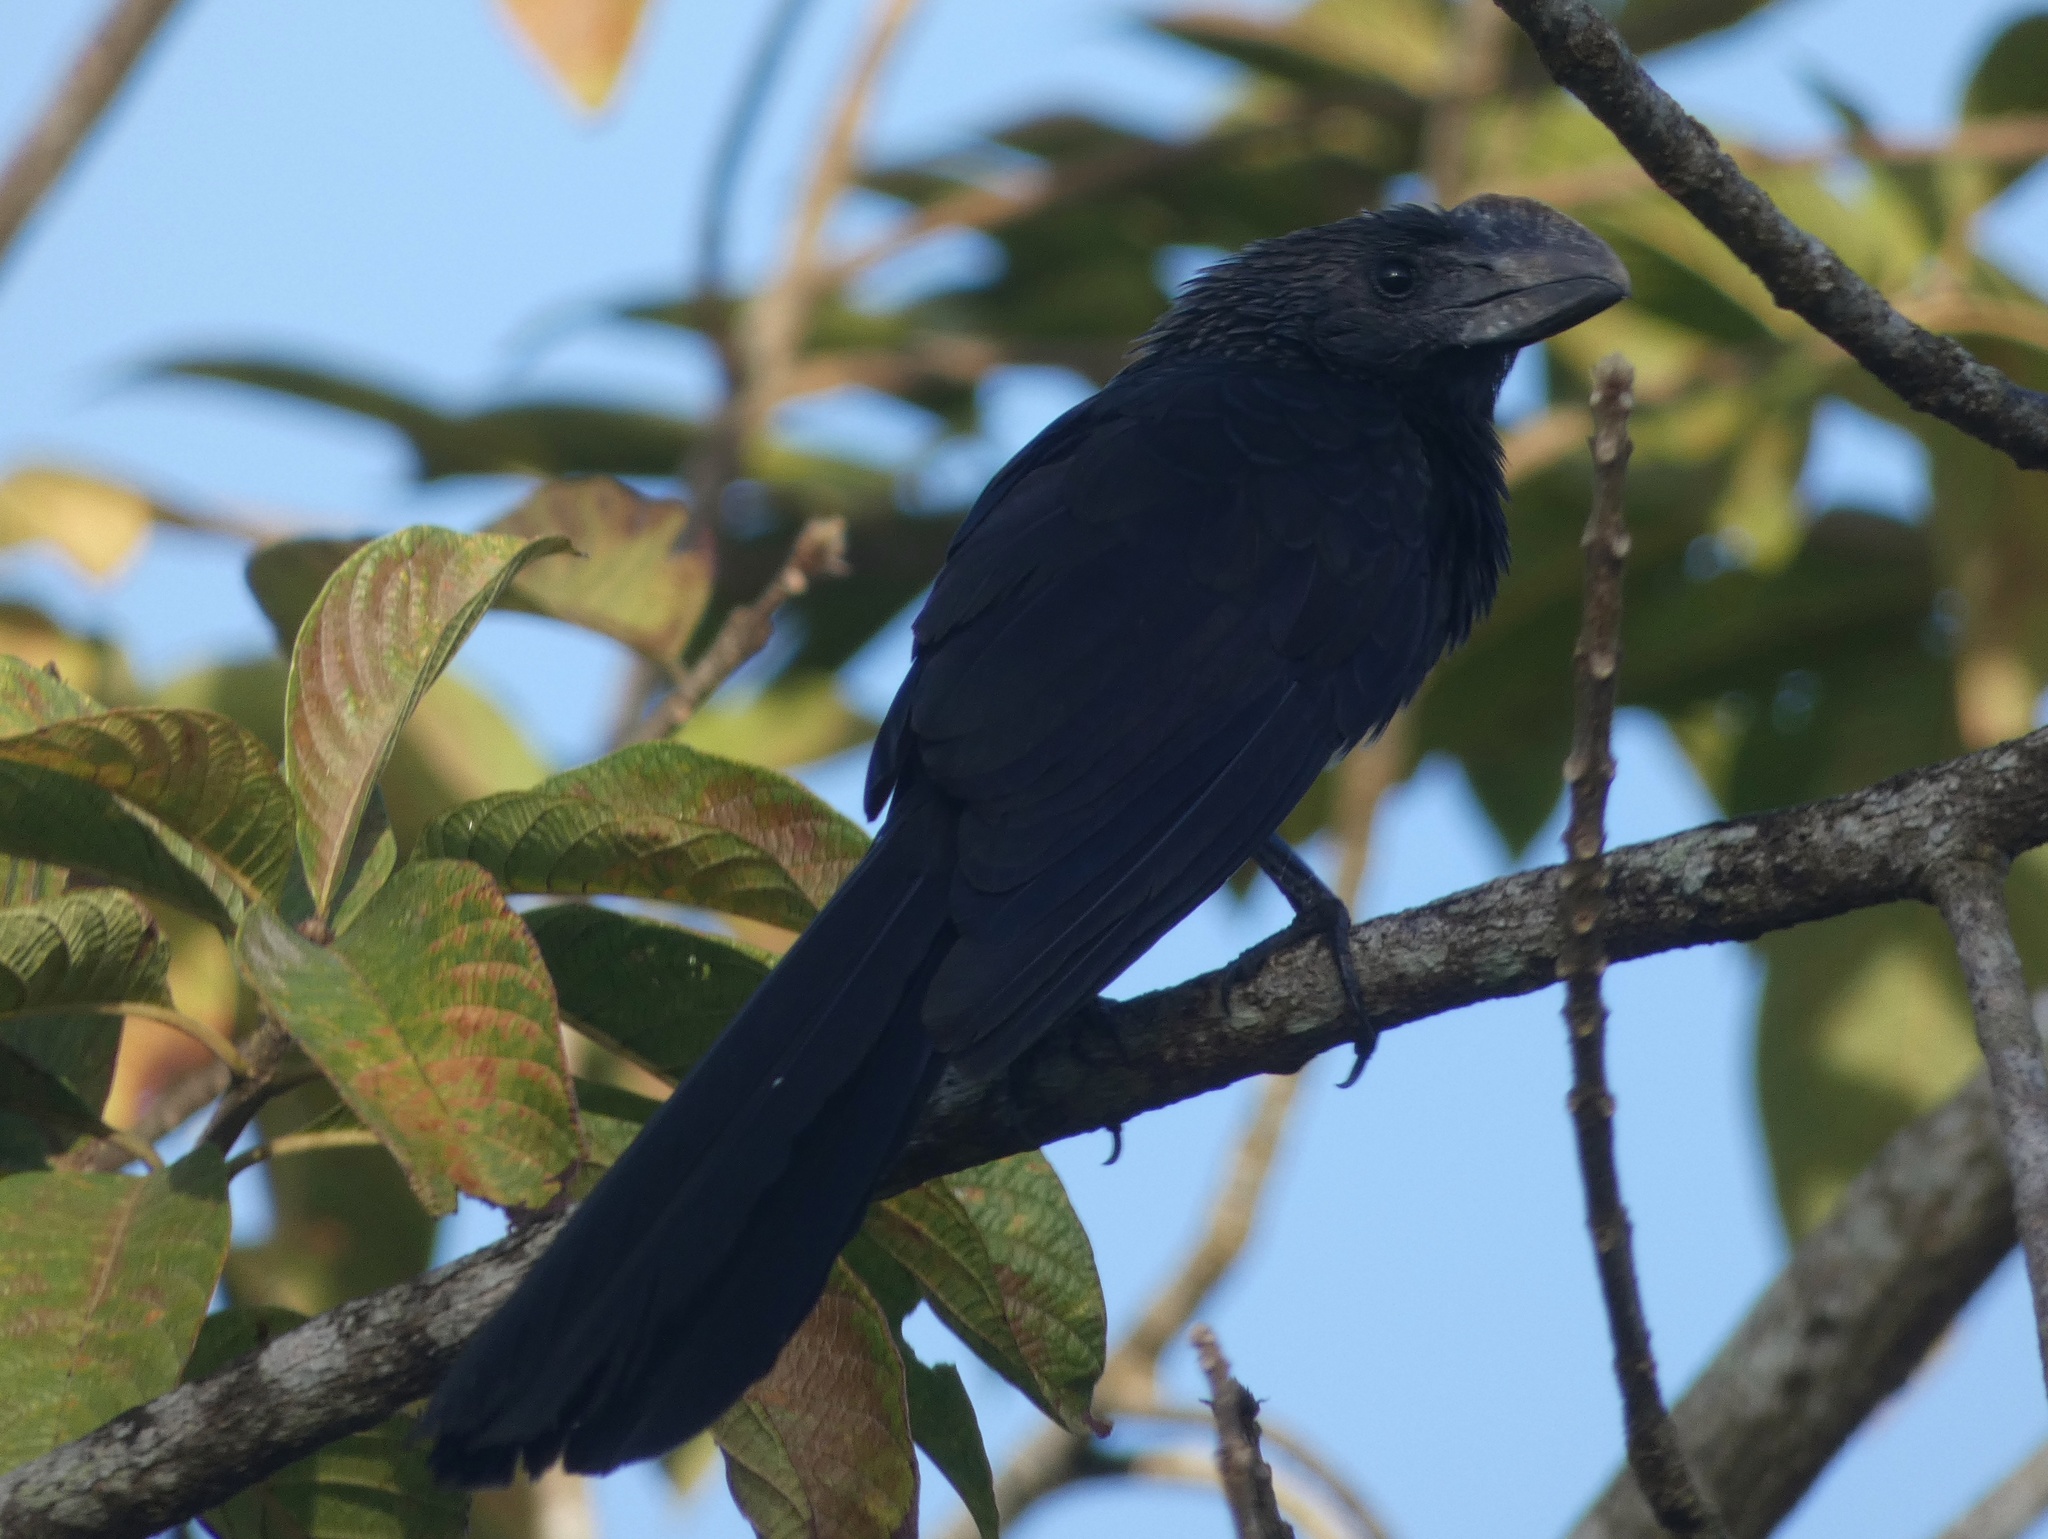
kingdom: Animalia
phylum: Chordata
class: Aves
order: Cuculiformes
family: Cuculidae
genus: Crotophaga
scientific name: Crotophaga ani
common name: Smooth-billed ani
